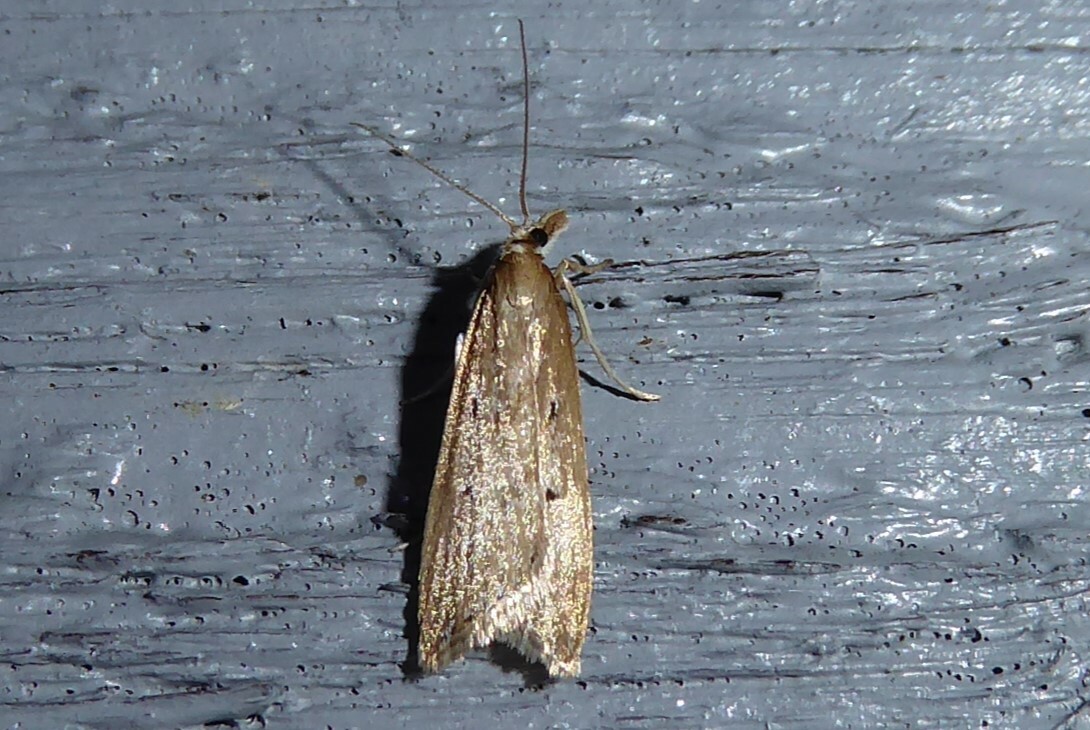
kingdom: Animalia
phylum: Arthropoda
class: Insecta
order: Lepidoptera
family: Crambidae
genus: Antiscopa
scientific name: Antiscopa elaphra
